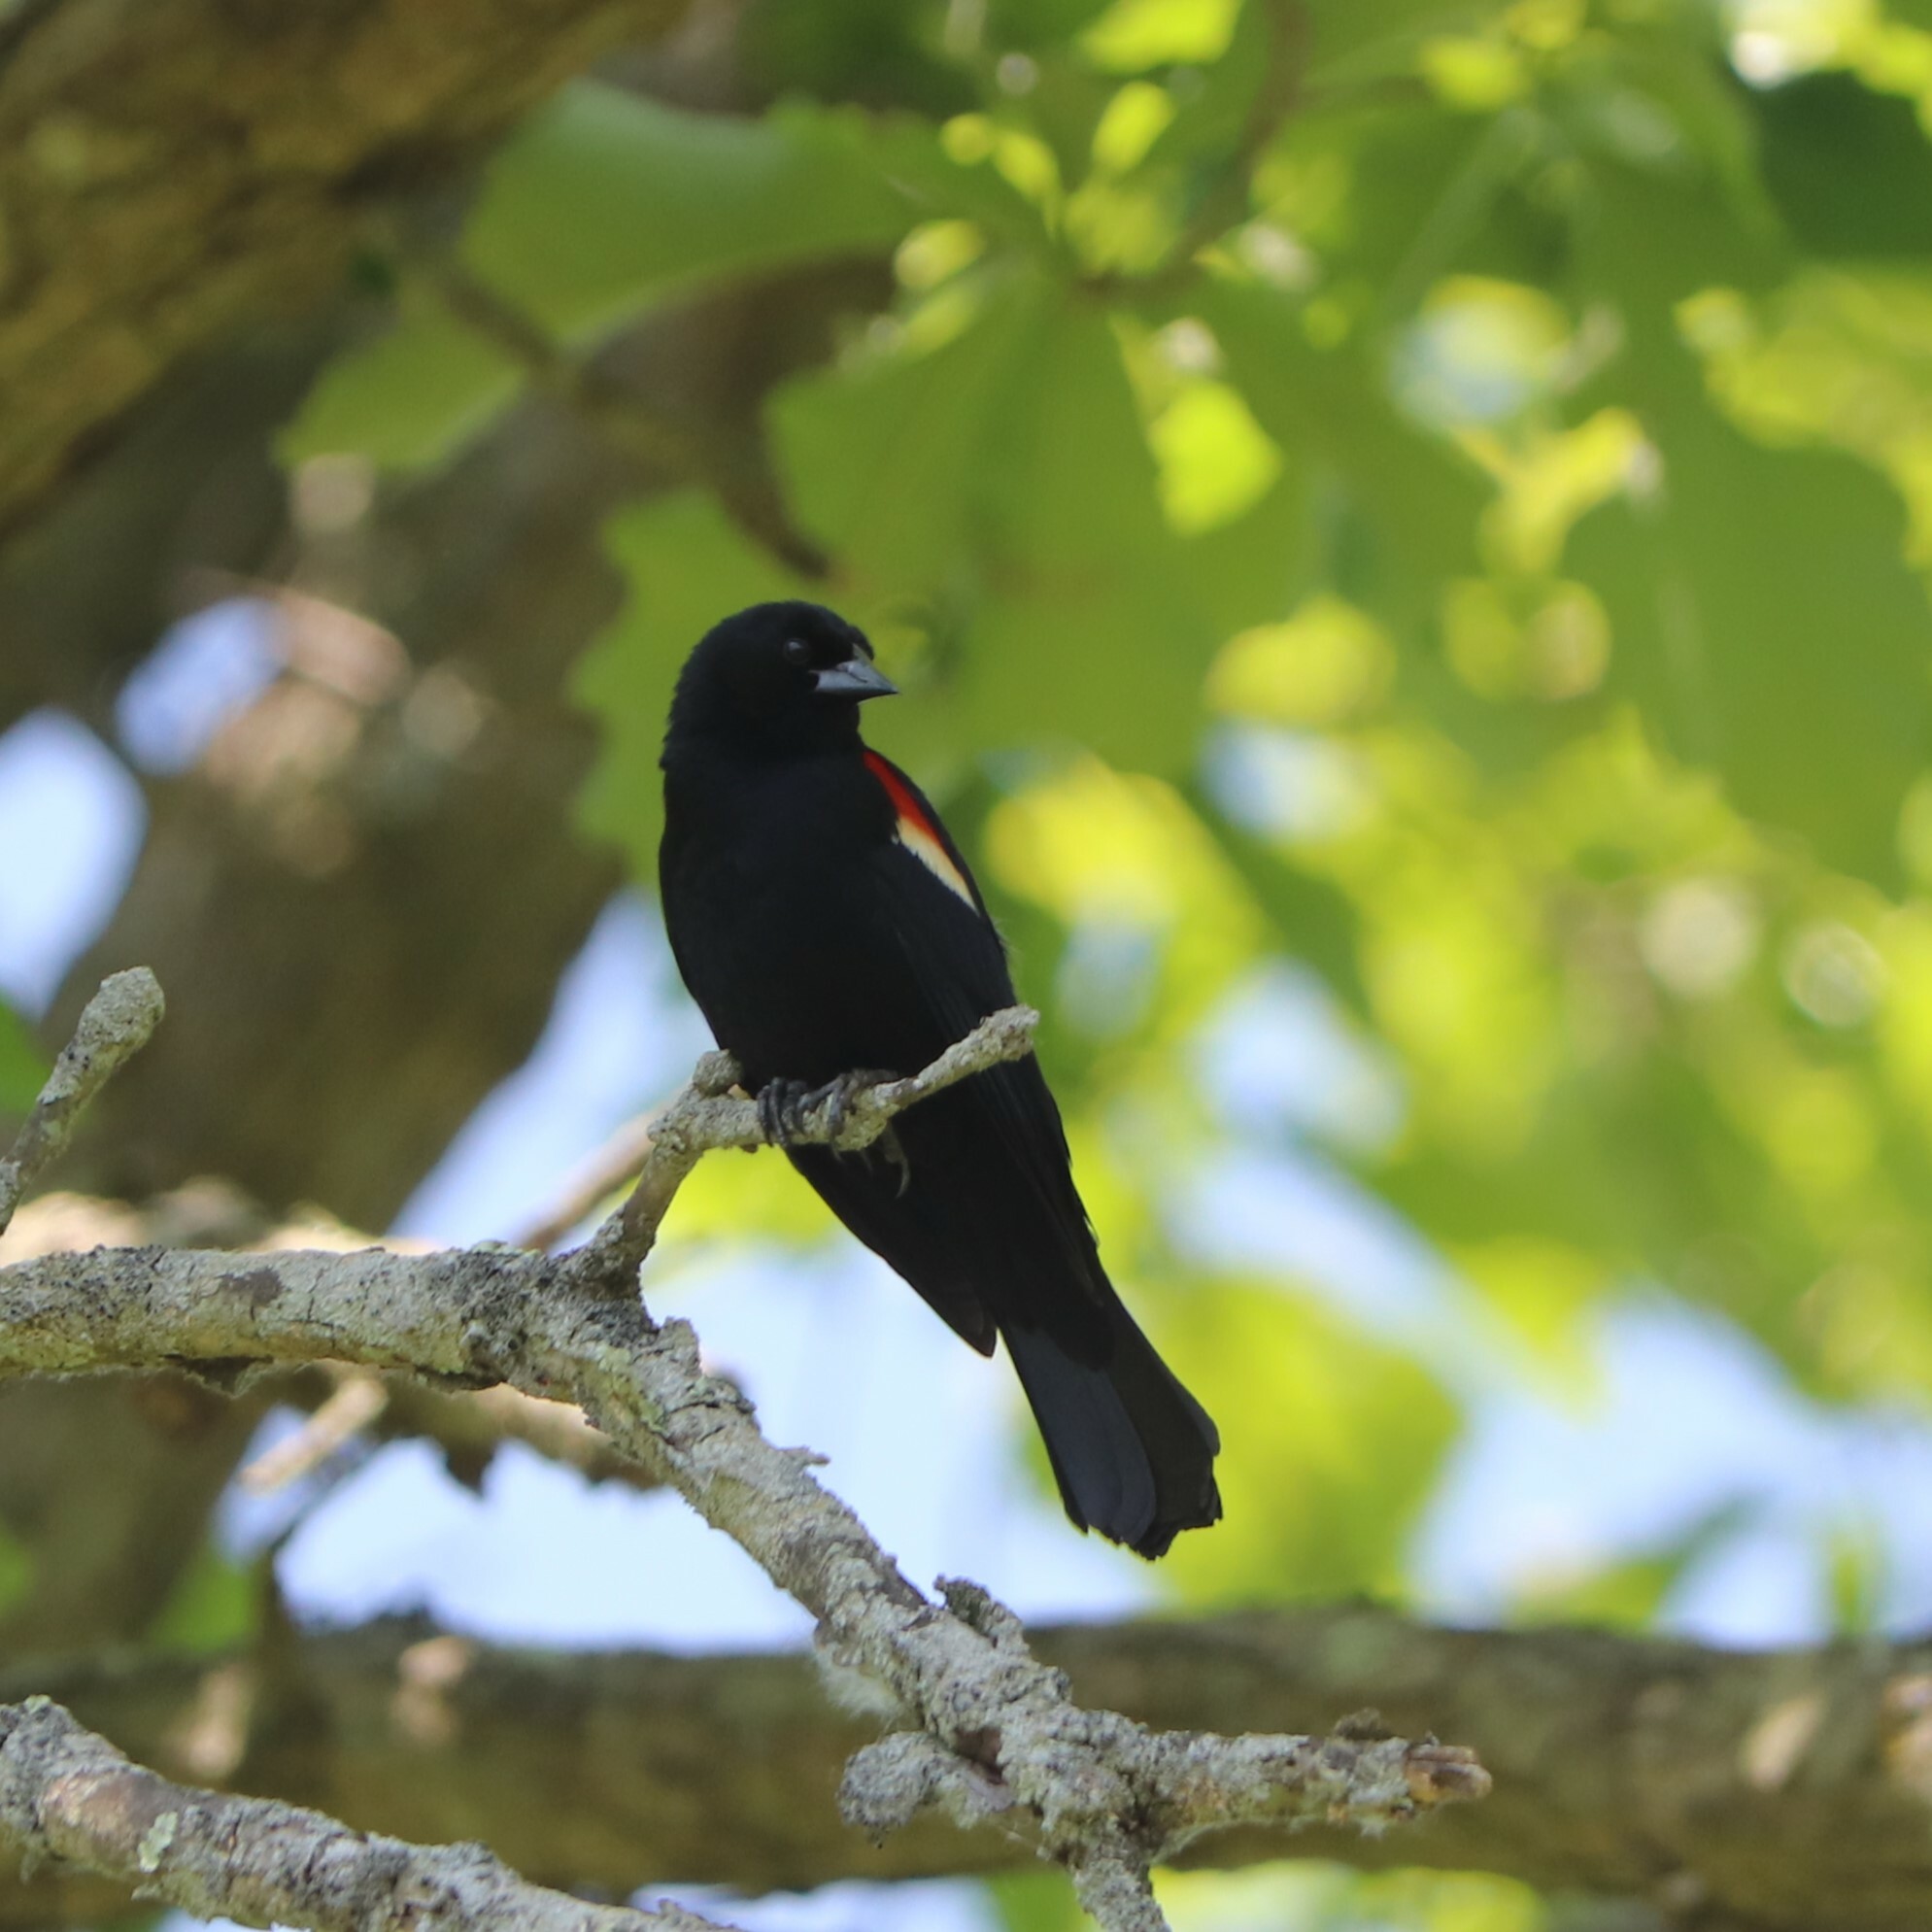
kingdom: Animalia
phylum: Chordata
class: Aves
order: Passeriformes
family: Icteridae
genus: Agelaius
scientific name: Agelaius phoeniceus
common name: Red-winged blackbird
